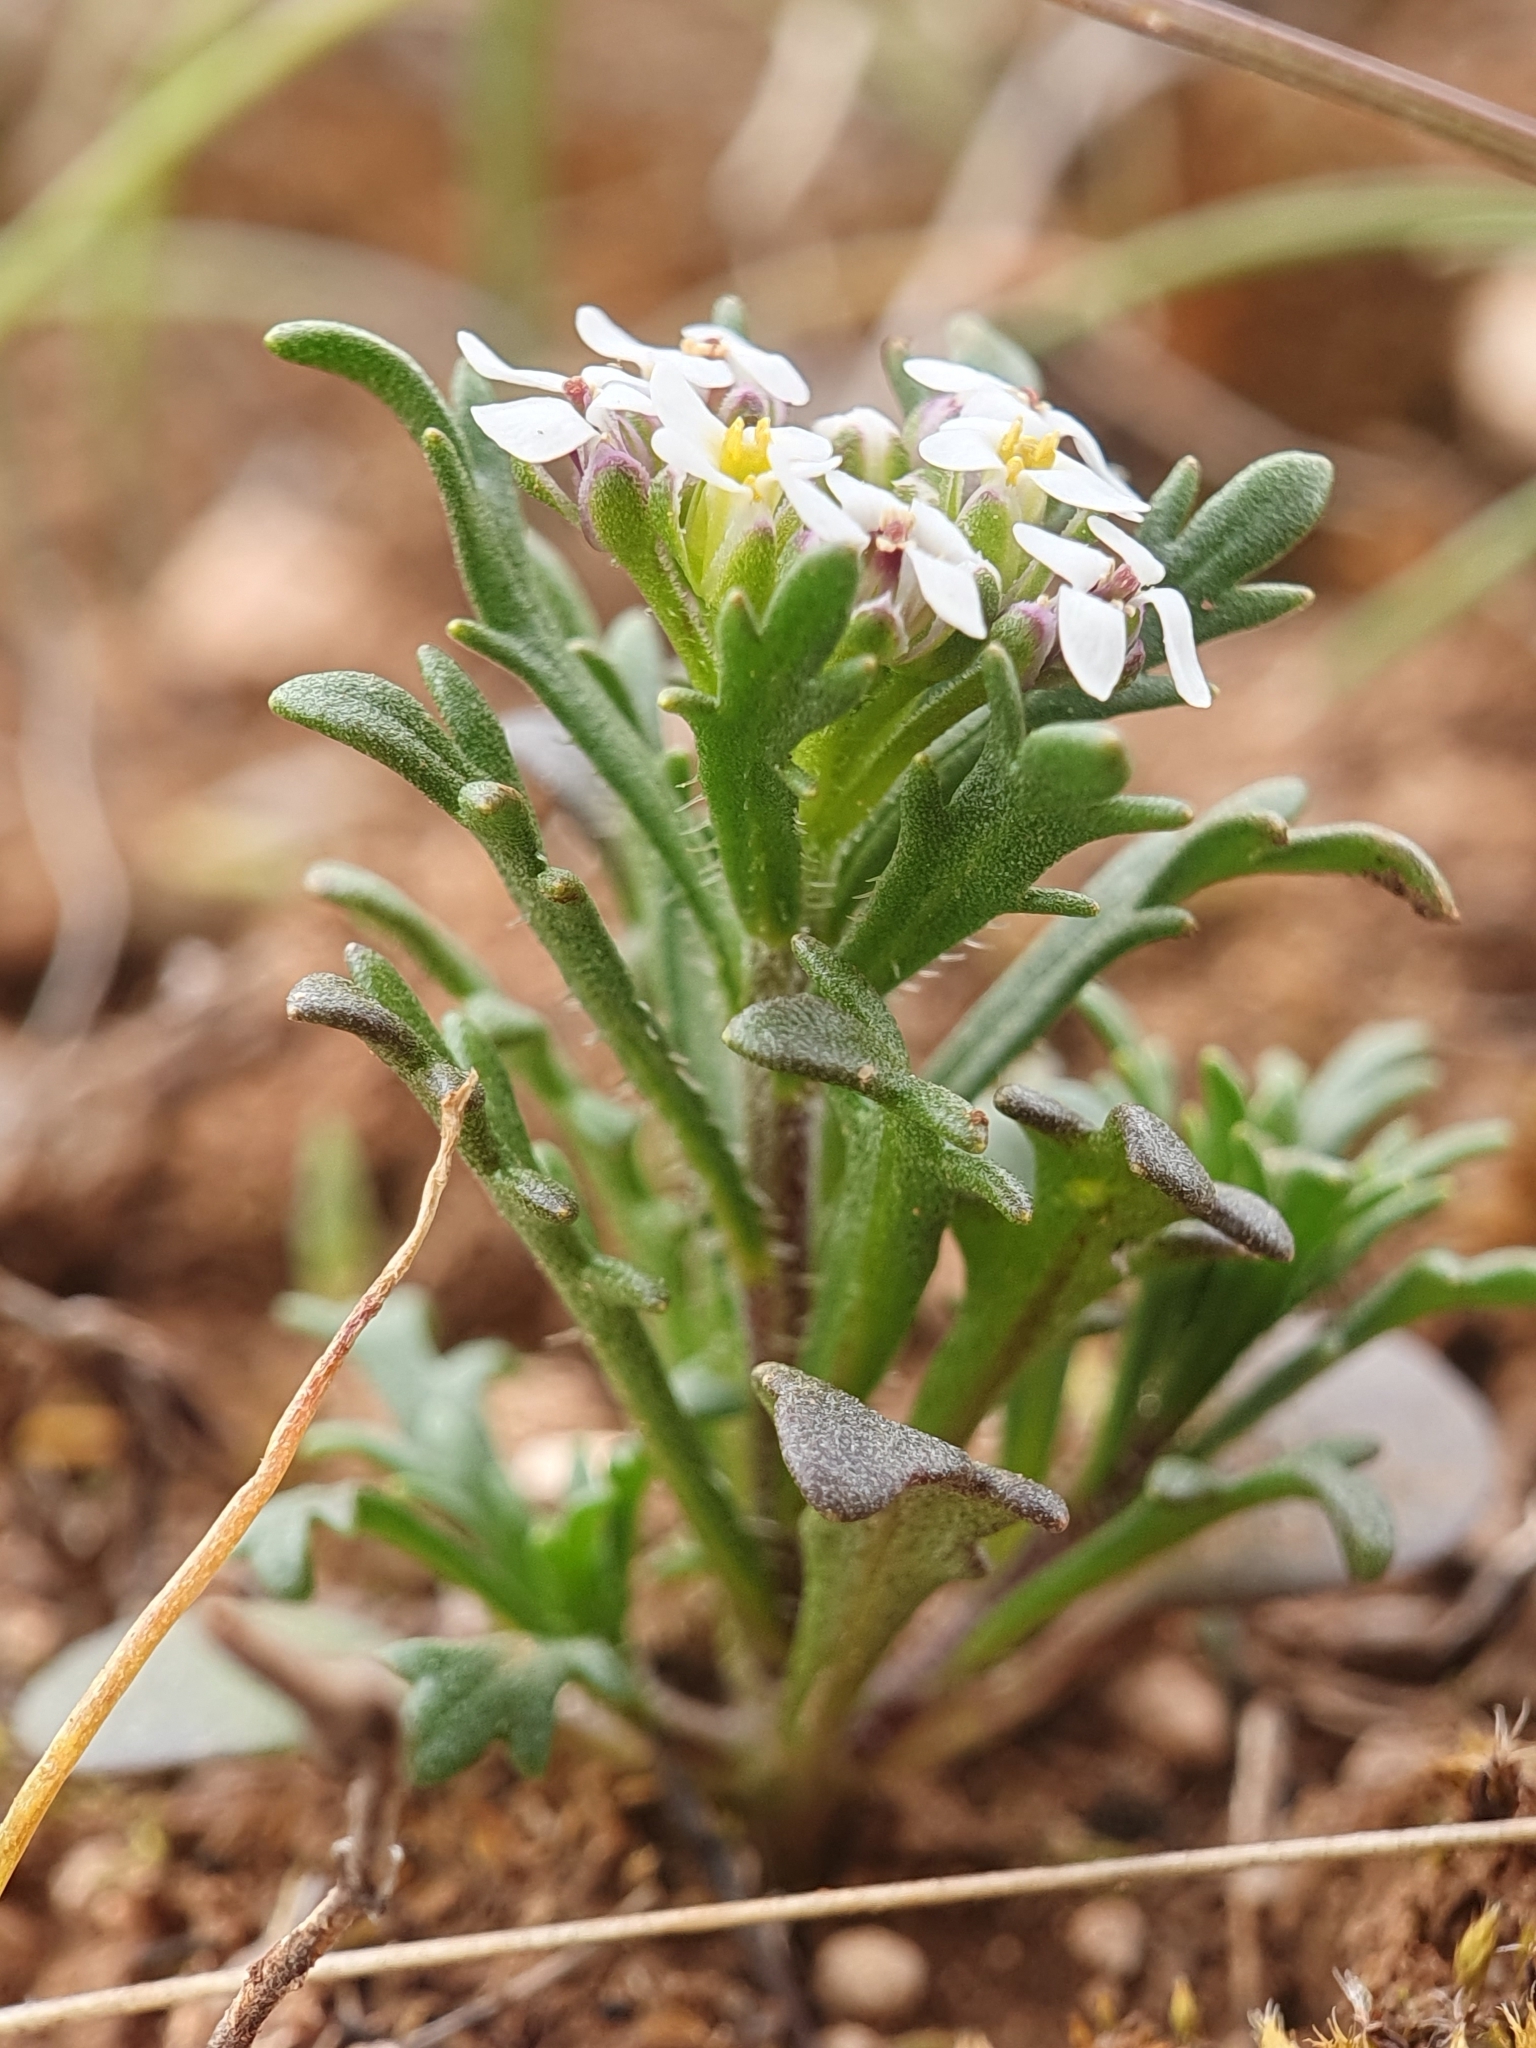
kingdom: Plantae
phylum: Tracheophyta
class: Magnoliopsida
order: Brassicales
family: Brassicaceae
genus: Iberis
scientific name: Iberis odorata
